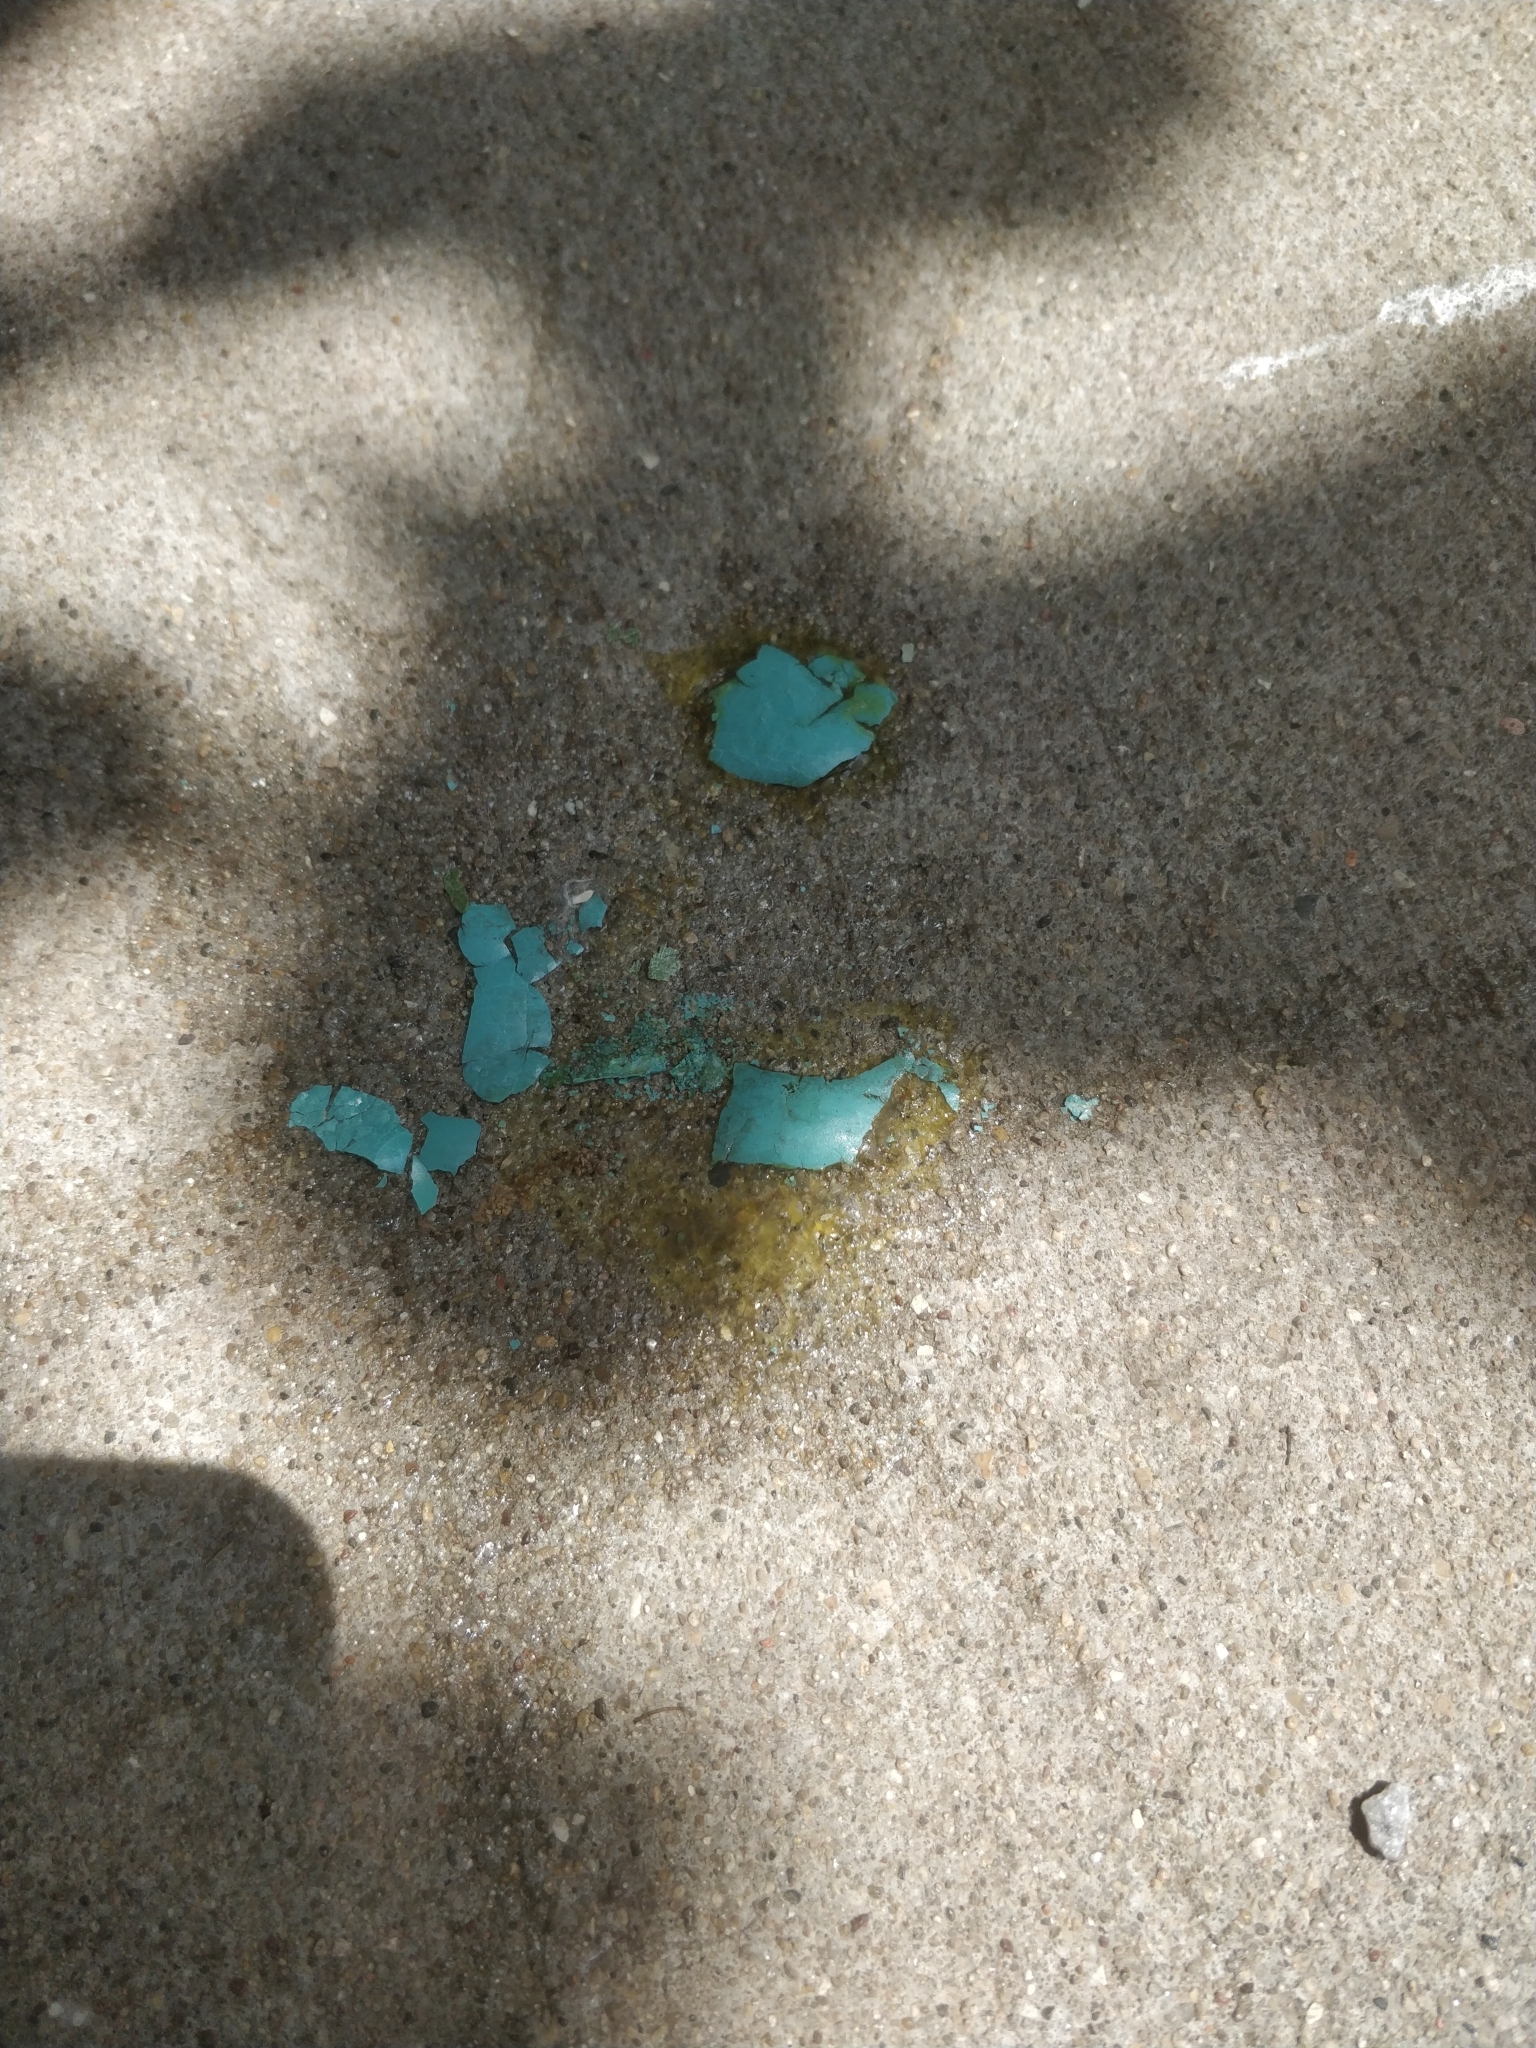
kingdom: Animalia
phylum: Chordata
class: Aves
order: Passeriformes
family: Turdidae
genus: Turdus
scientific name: Turdus migratorius
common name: American robin
